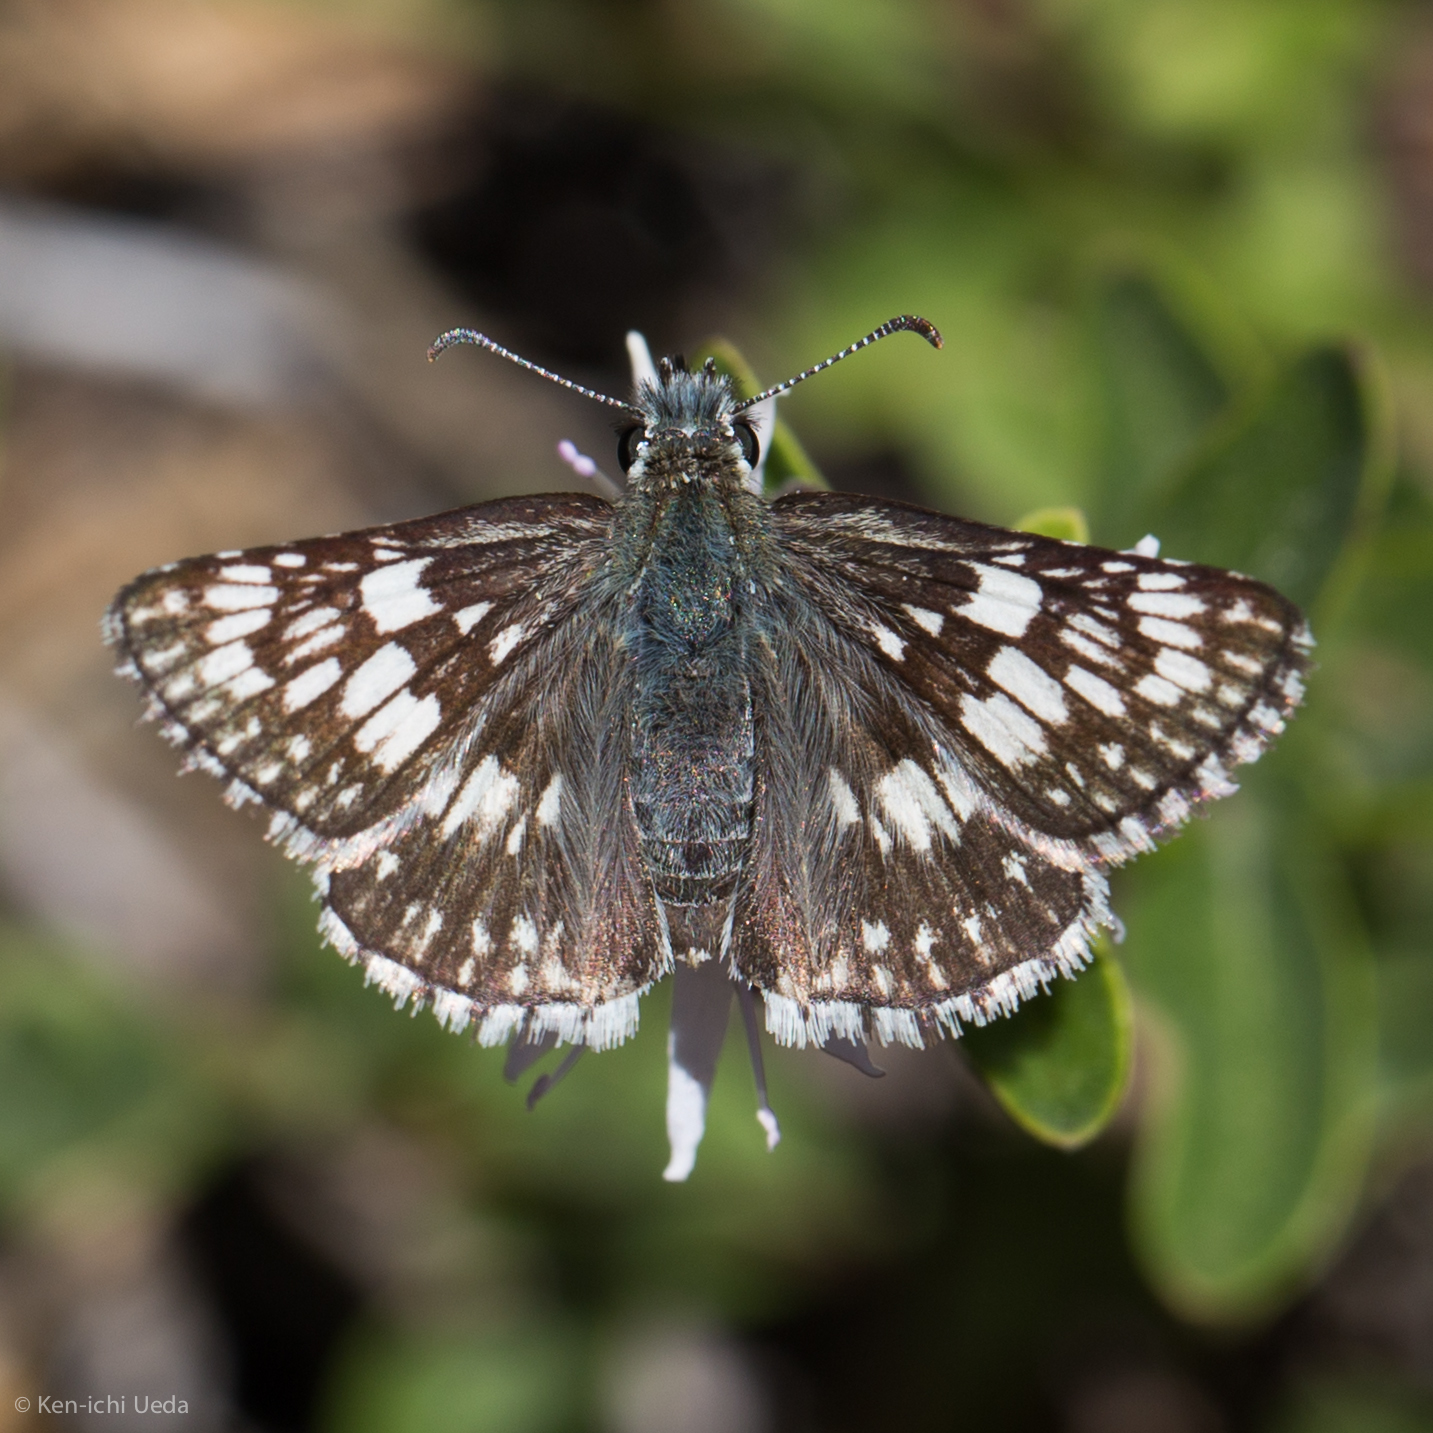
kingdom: Animalia
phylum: Arthropoda
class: Insecta
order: Lepidoptera
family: Hesperiidae
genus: Burnsius
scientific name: Burnsius communis
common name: Common checkered-skipper
